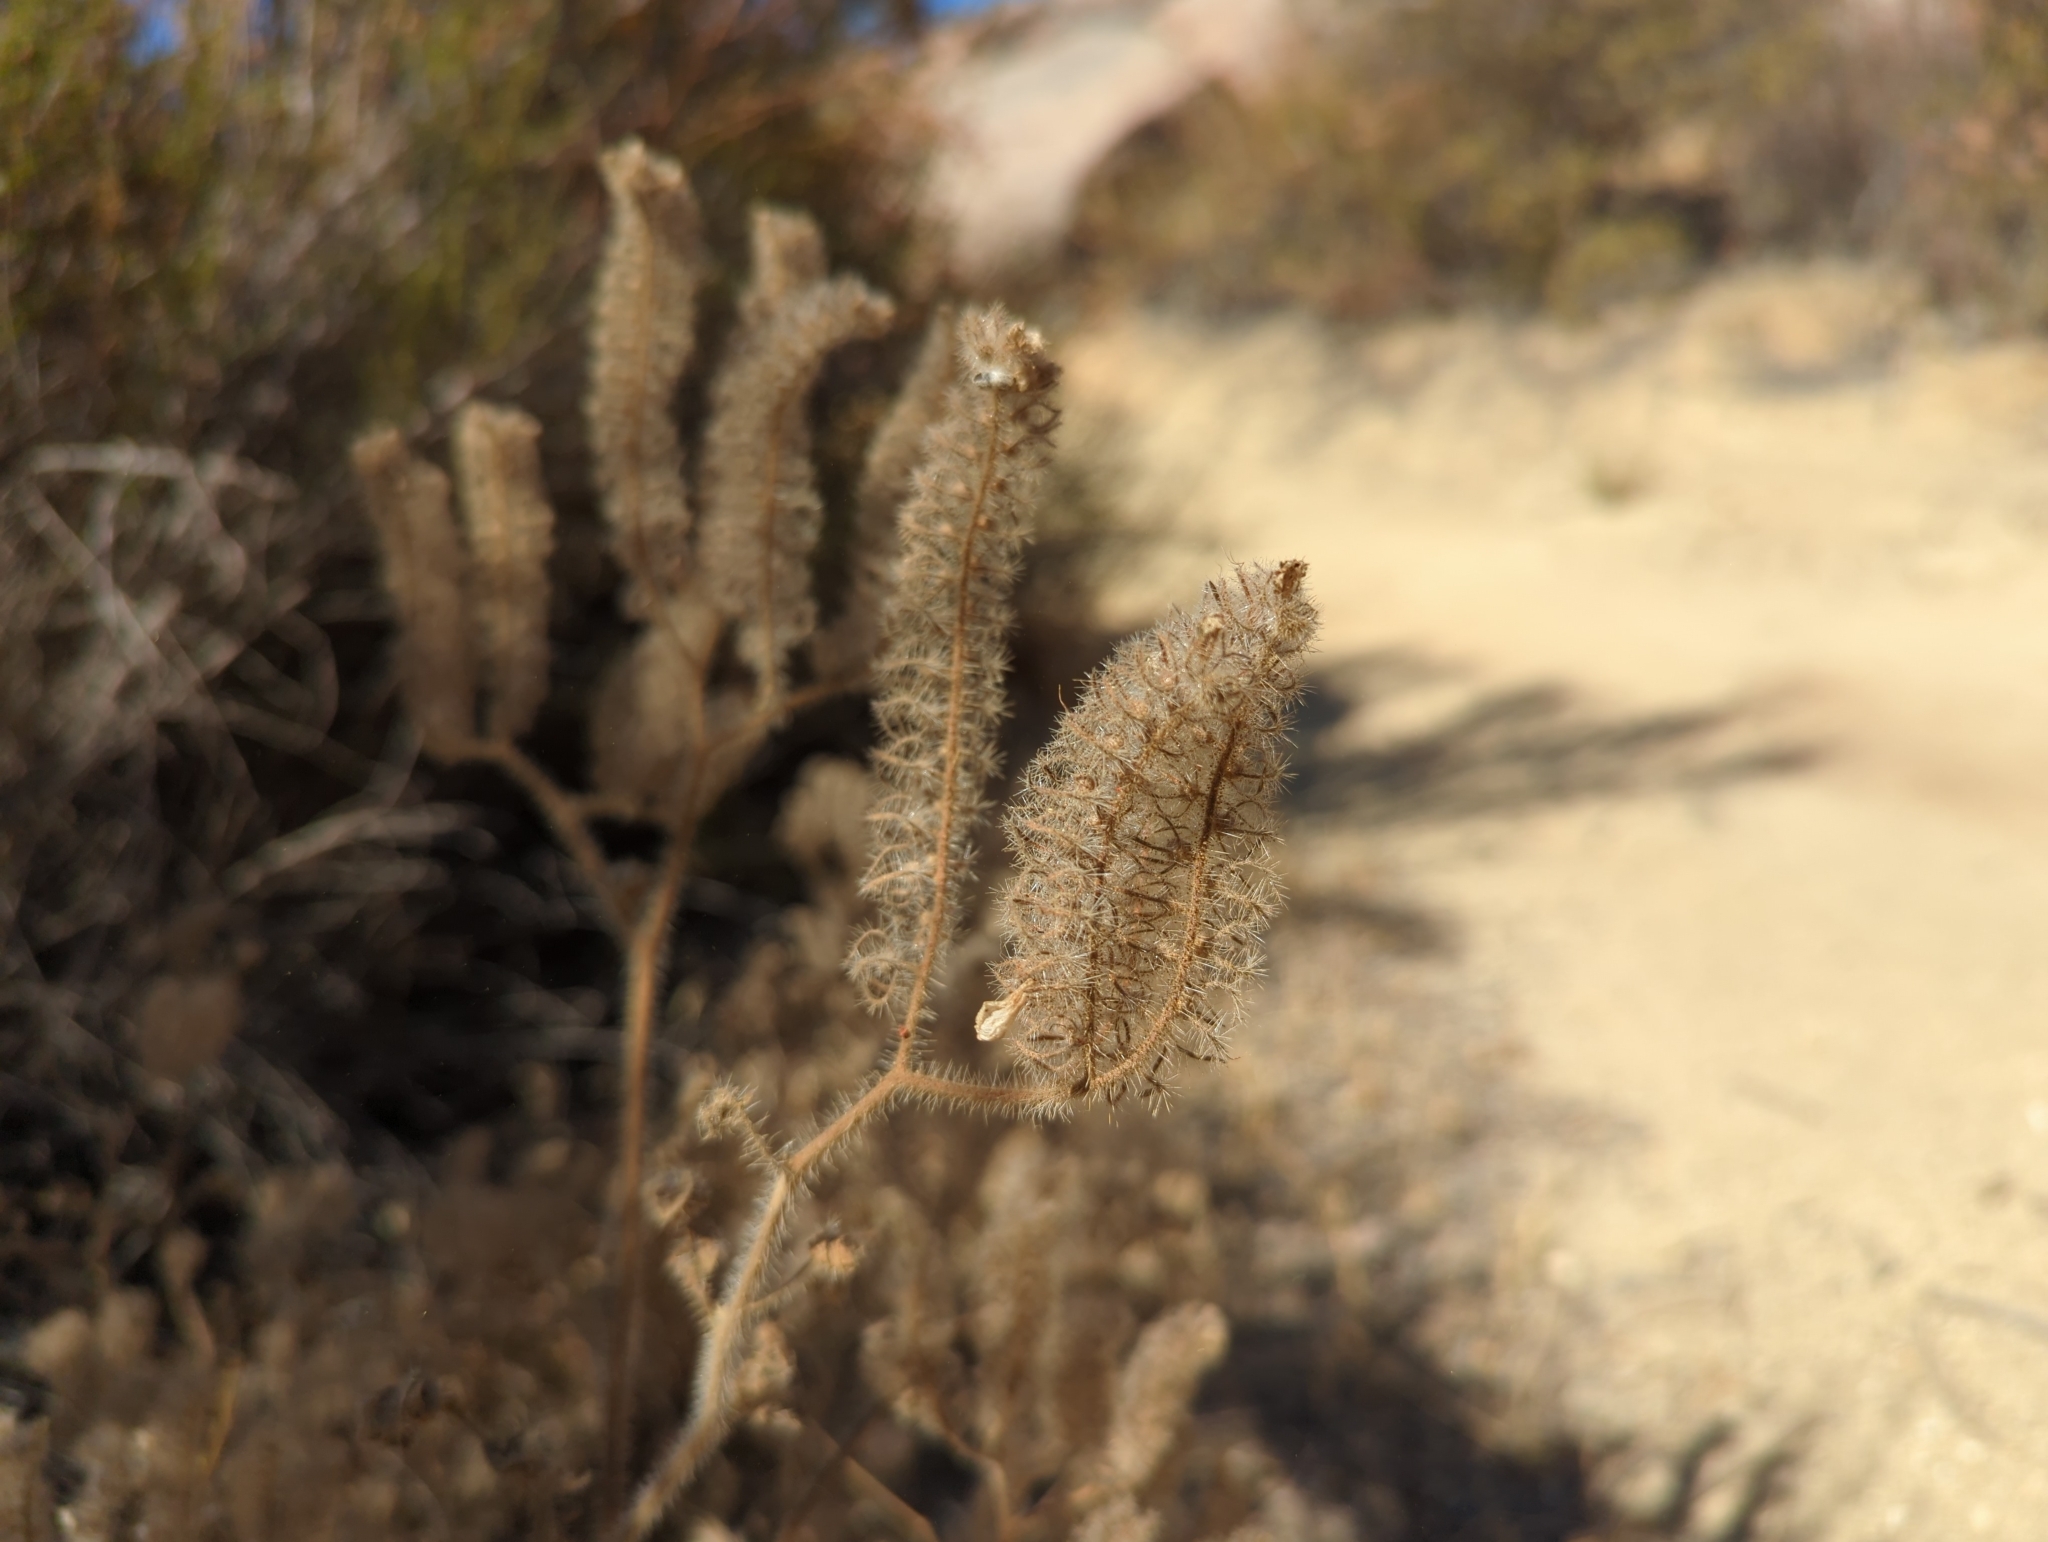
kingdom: Plantae
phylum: Tracheophyta
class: Magnoliopsida
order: Boraginales
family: Hydrophyllaceae
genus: Phacelia
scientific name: Phacelia cicutaria
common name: Caterpillar phacelia
